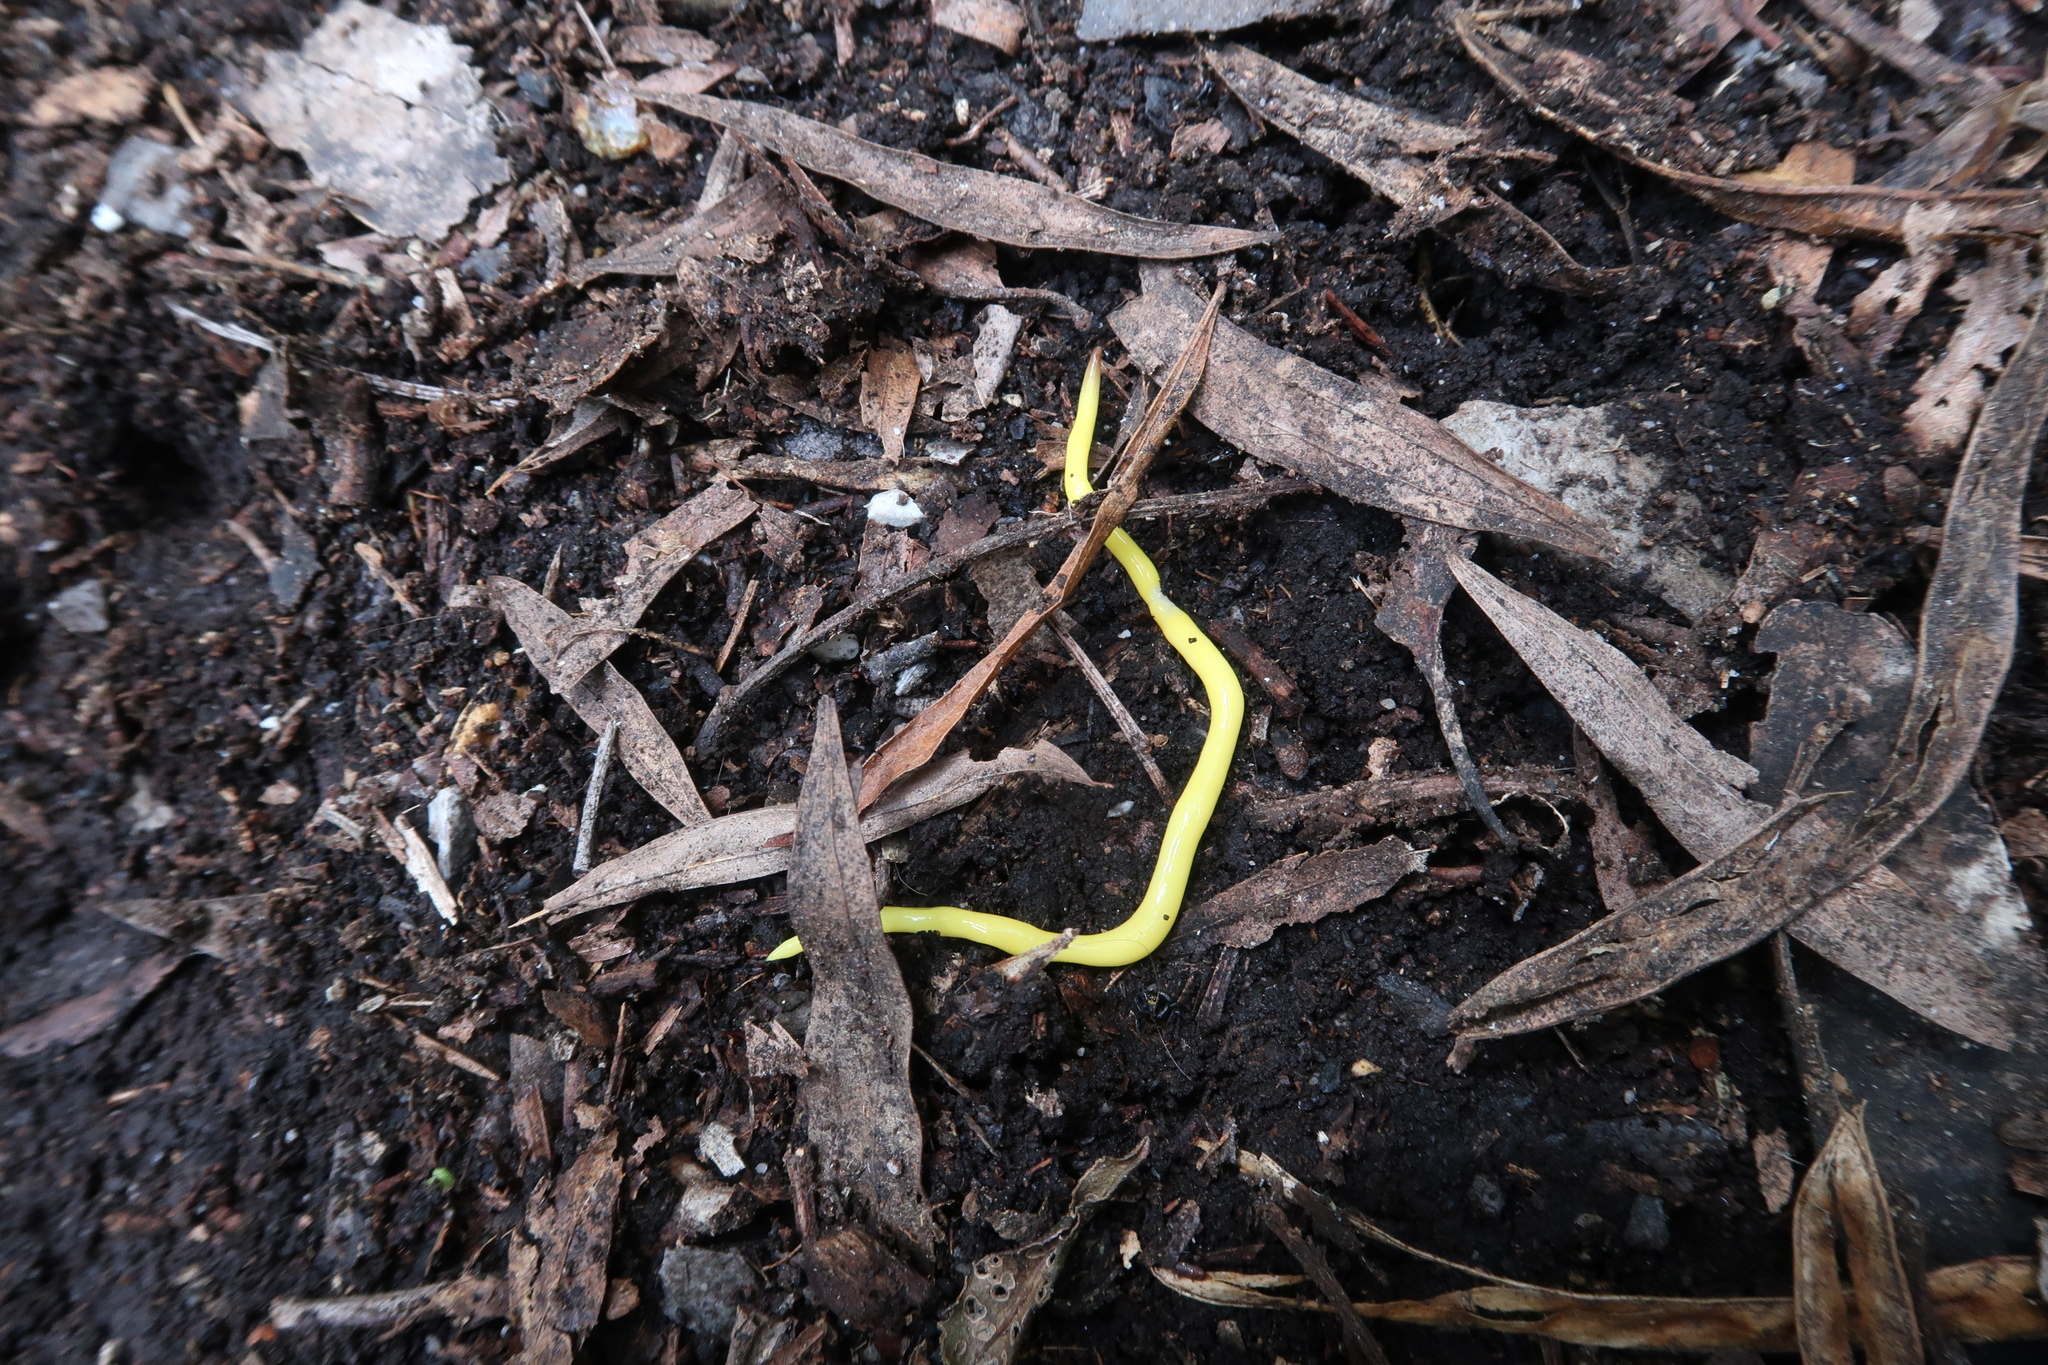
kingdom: Animalia
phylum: Platyhelminthes
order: Tricladida
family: Geoplanidae
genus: Fletchamia
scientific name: Fletchamia sugdeni
